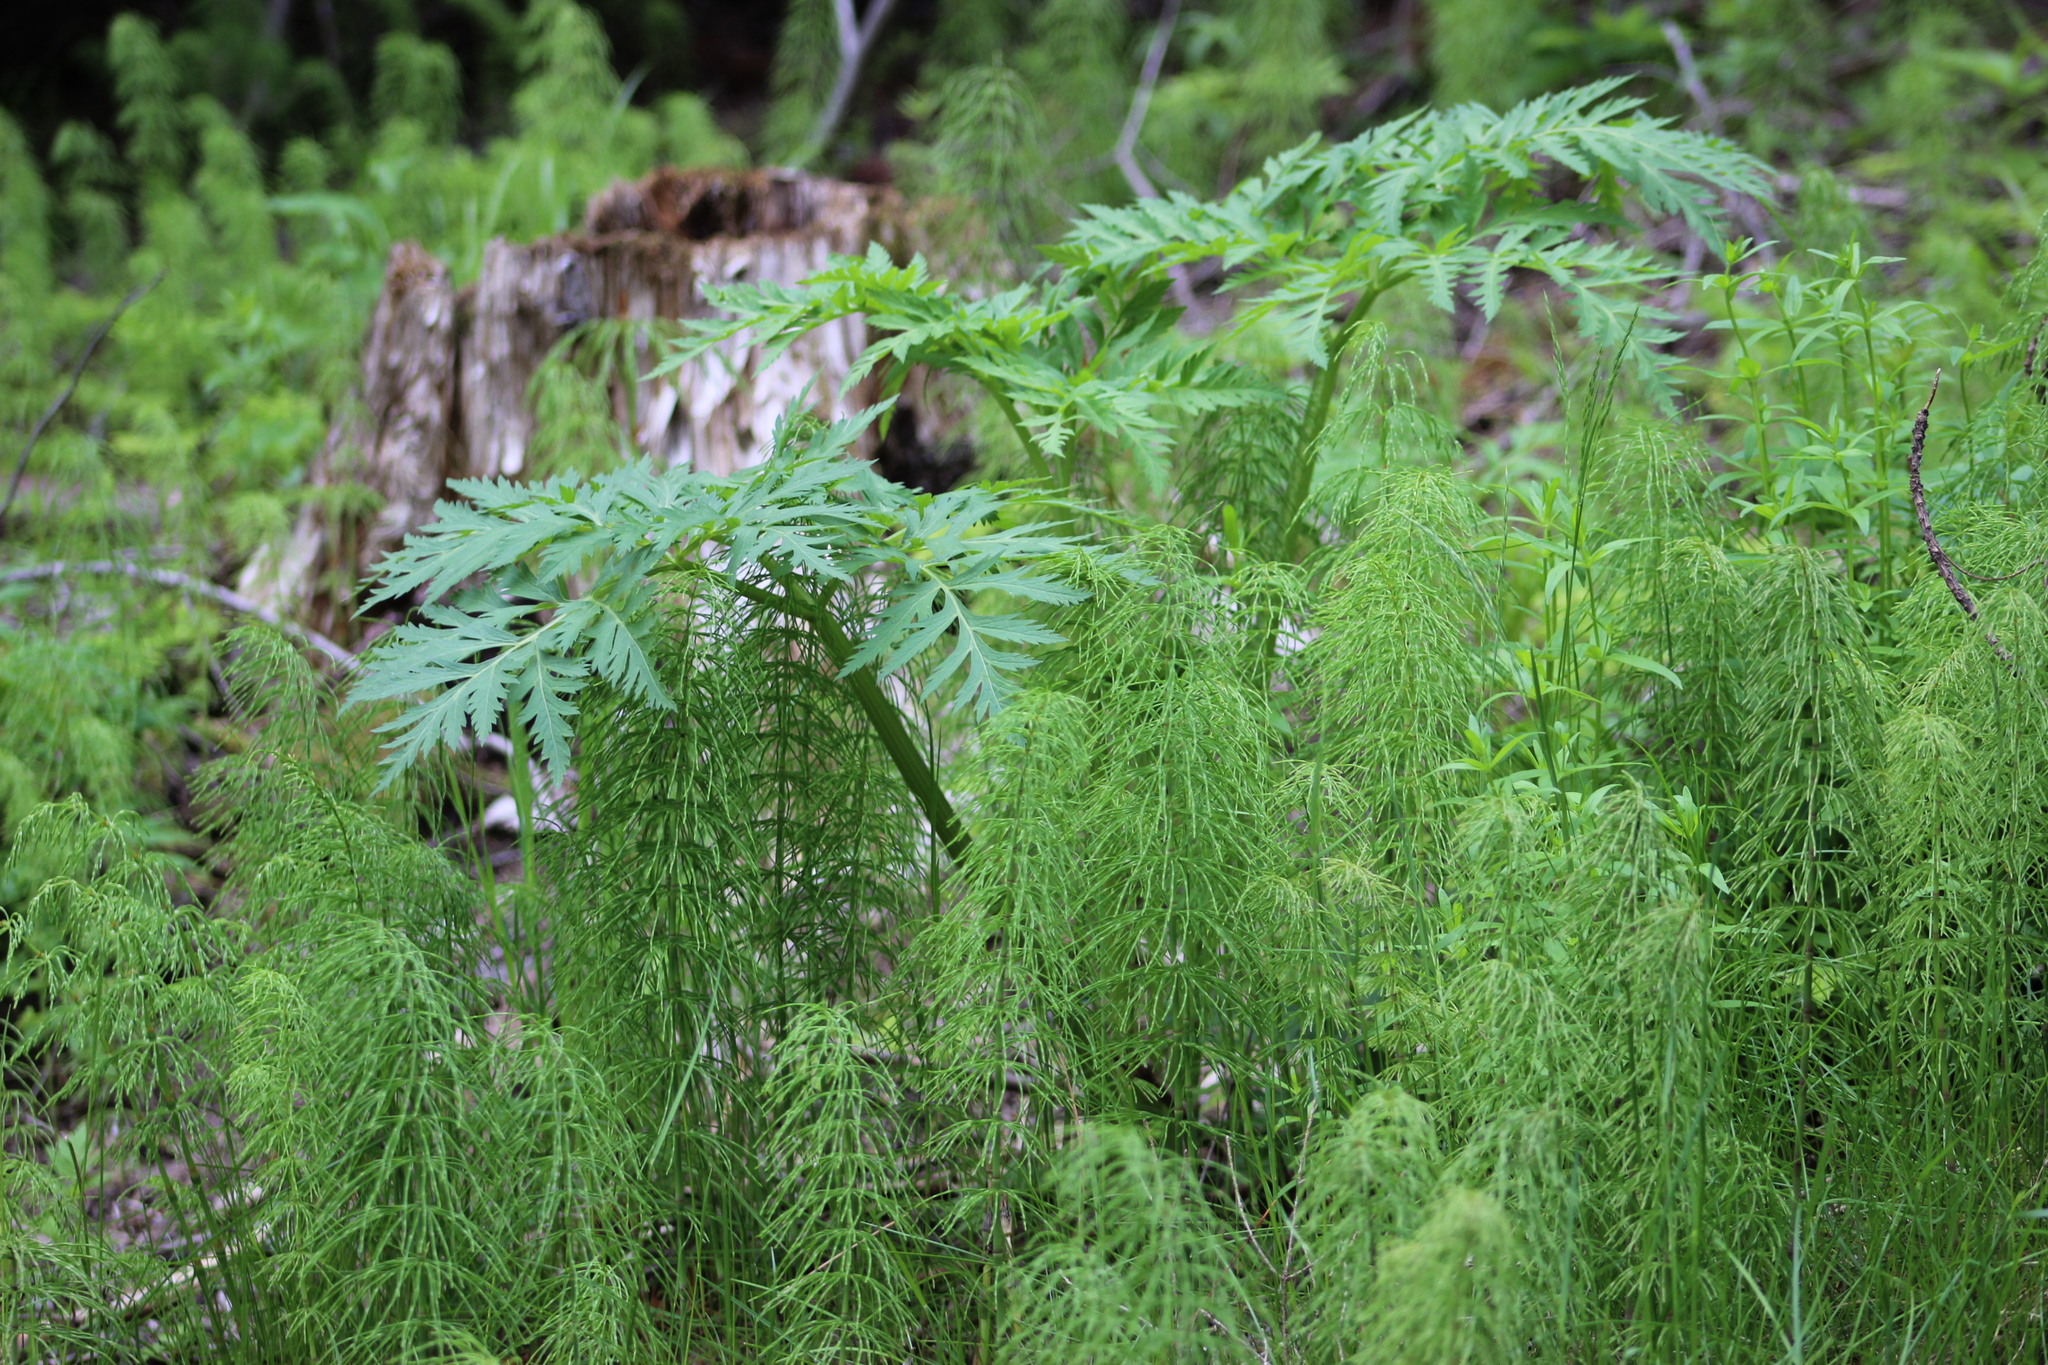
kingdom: Plantae
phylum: Tracheophyta
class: Magnoliopsida
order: Apiales
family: Apiaceae
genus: Pleurospermum
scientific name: Pleurospermum uralense
